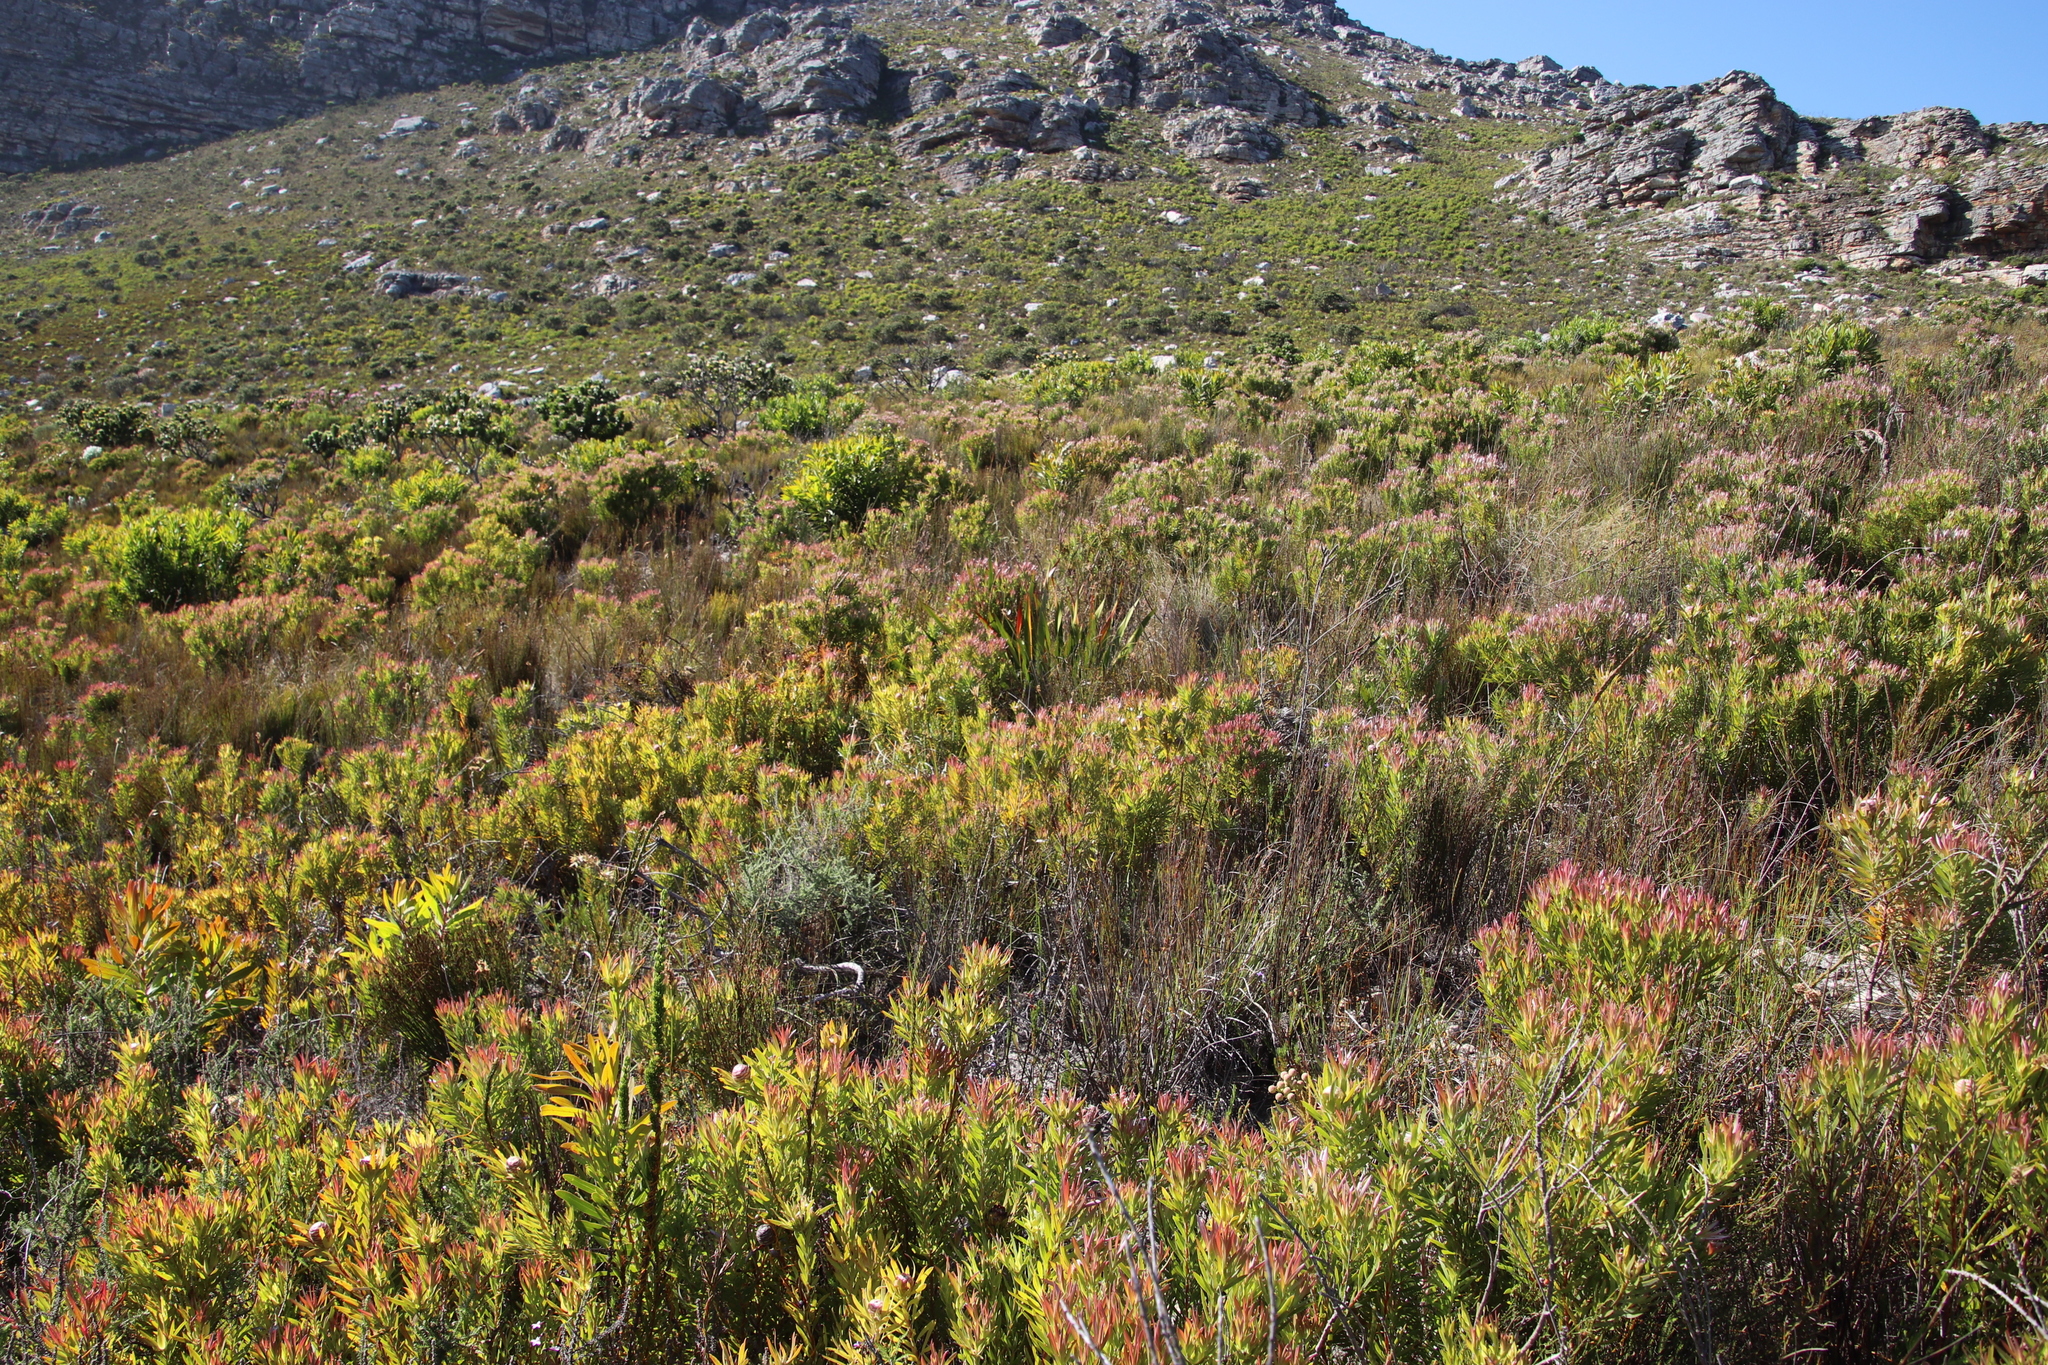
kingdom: Plantae
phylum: Tracheophyta
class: Magnoliopsida
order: Proteales
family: Proteaceae
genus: Leucadendron
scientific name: Leucadendron xanthoconus
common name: Sickle-leaf conebush
